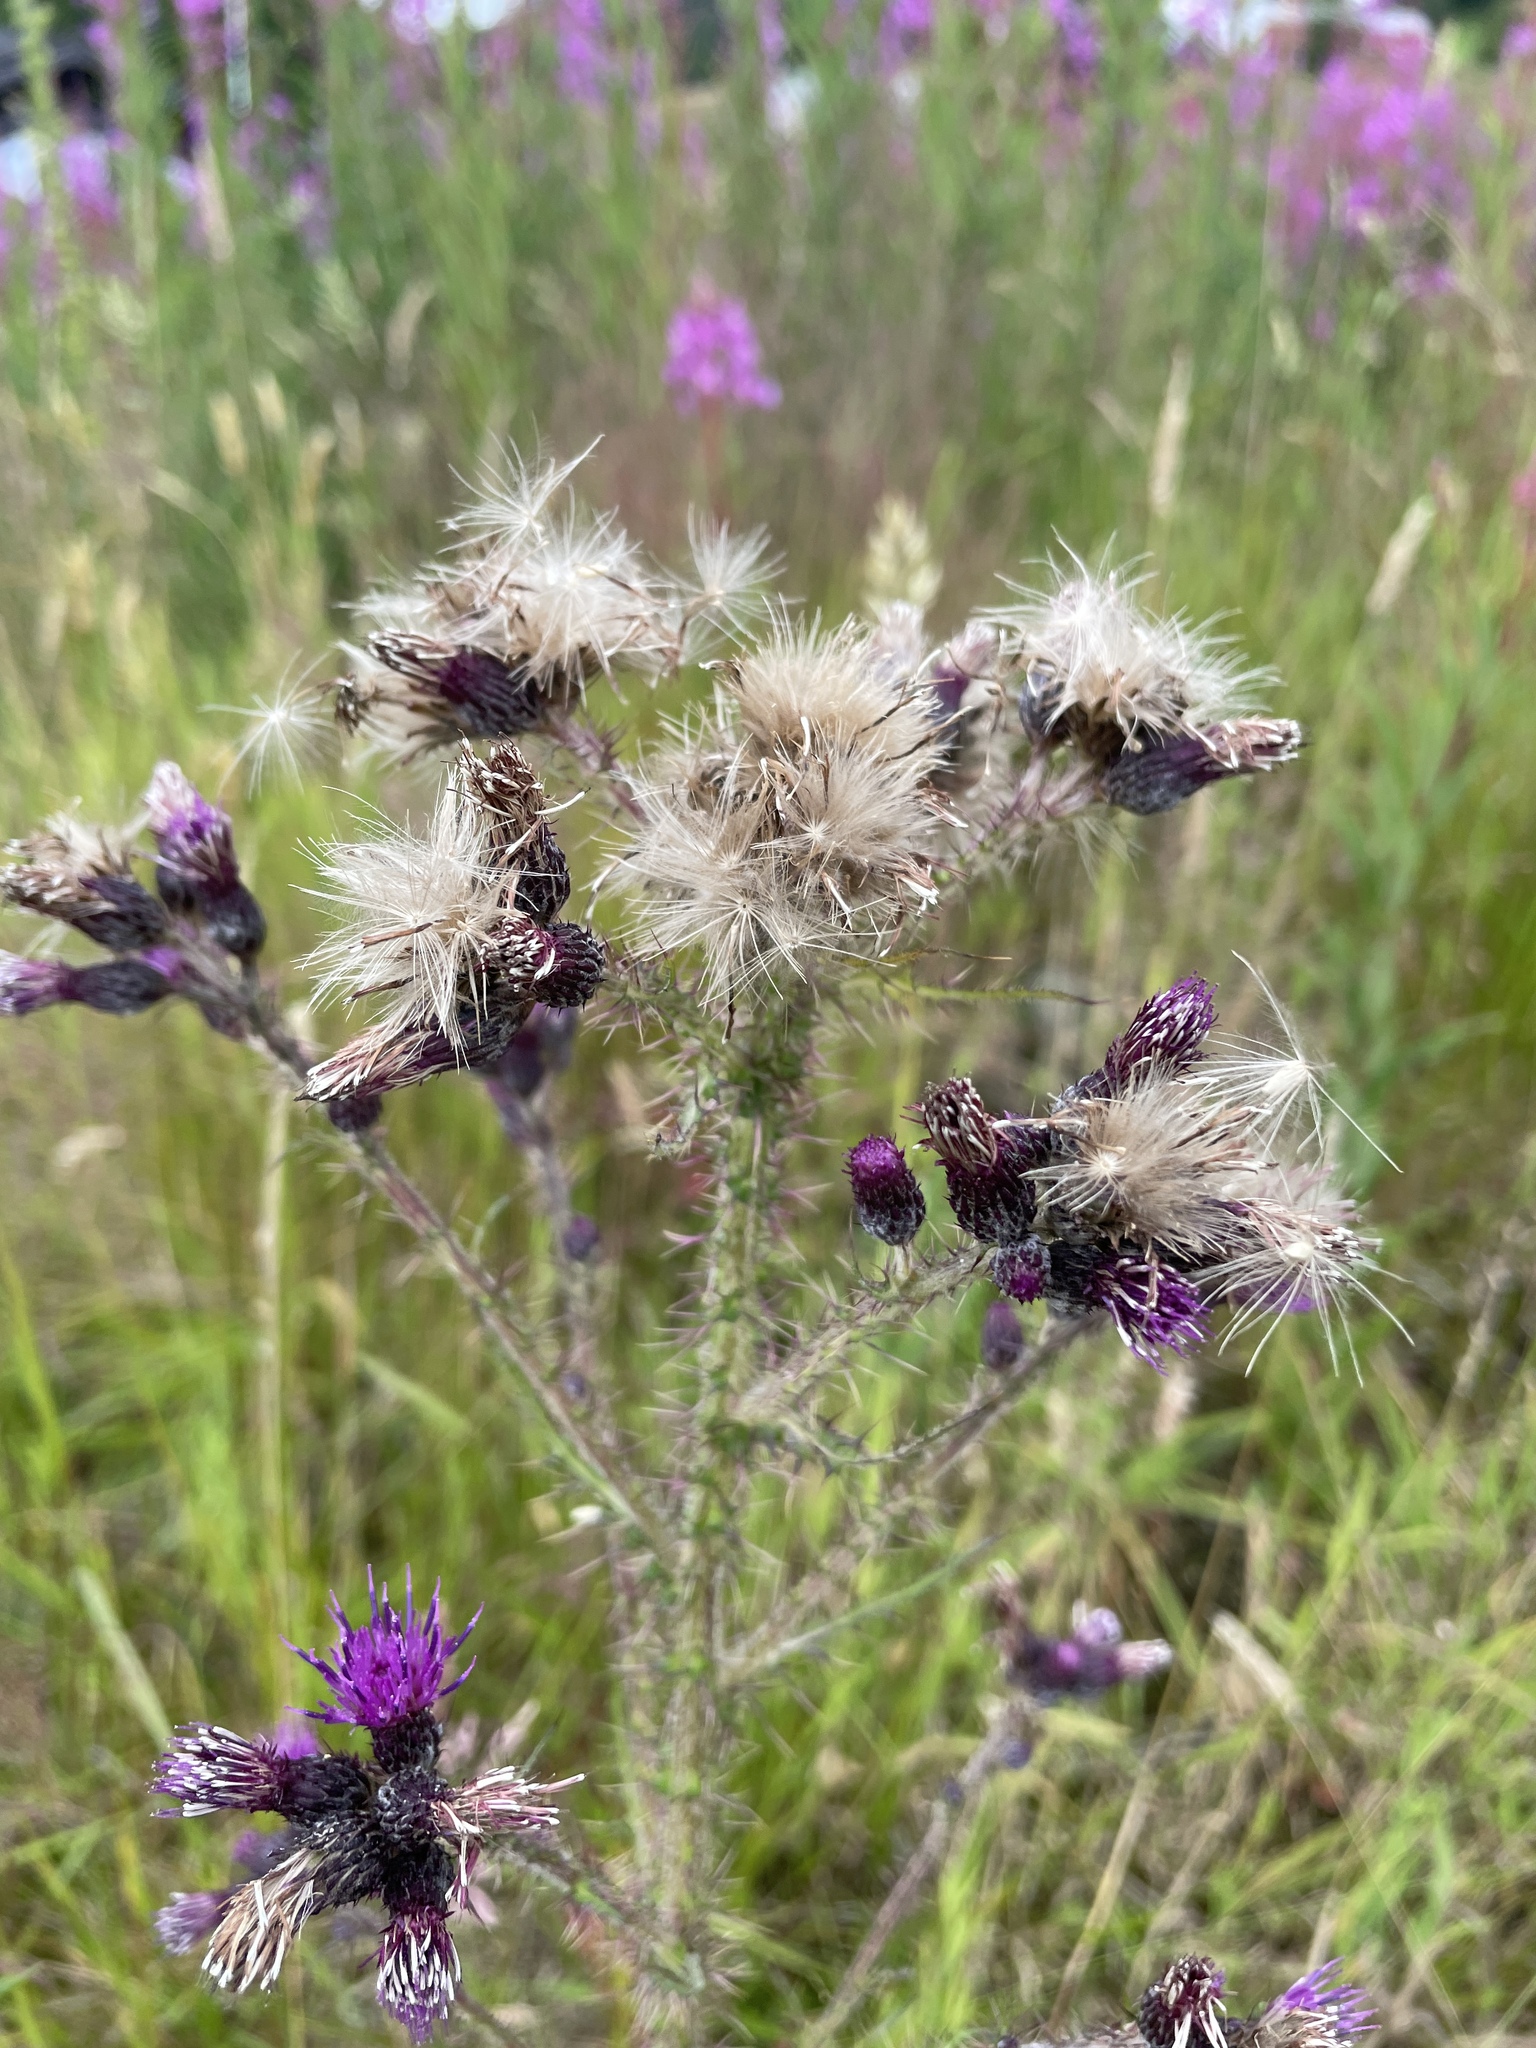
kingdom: Plantae
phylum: Tracheophyta
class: Magnoliopsida
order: Asterales
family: Asteraceae
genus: Cirsium
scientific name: Cirsium palustre
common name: Marsh thistle
